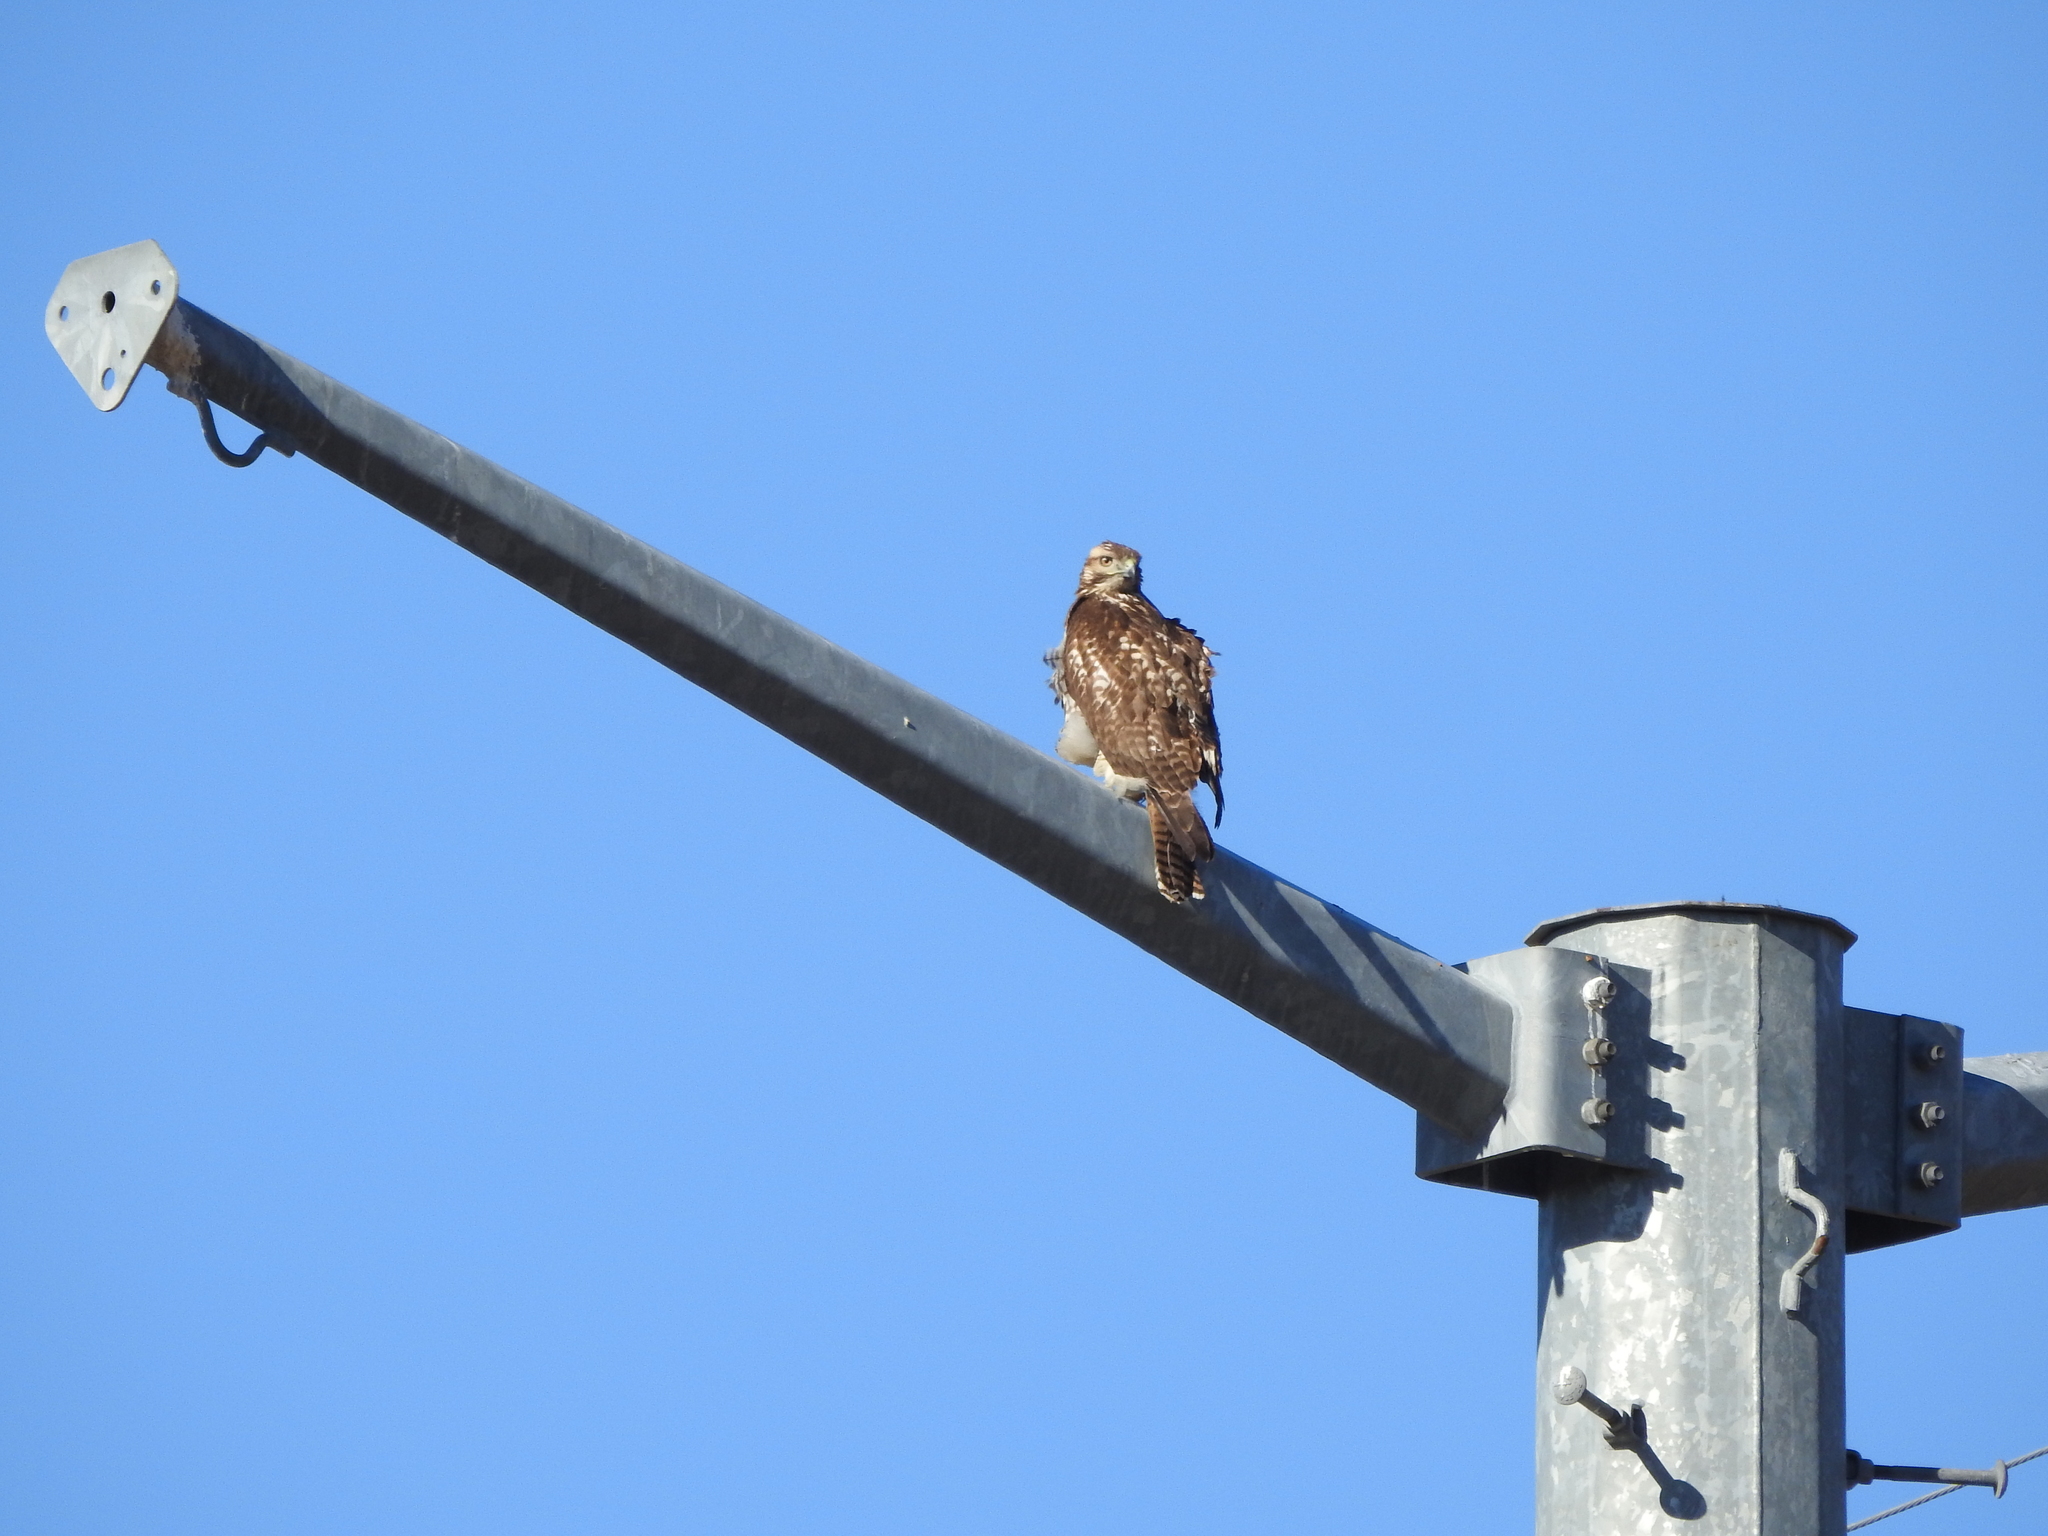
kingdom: Animalia
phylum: Chordata
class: Aves
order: Accipitriformes
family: Accipitridae
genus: Buteo
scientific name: Buteo jamaicensis
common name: Red-tailed hawk
